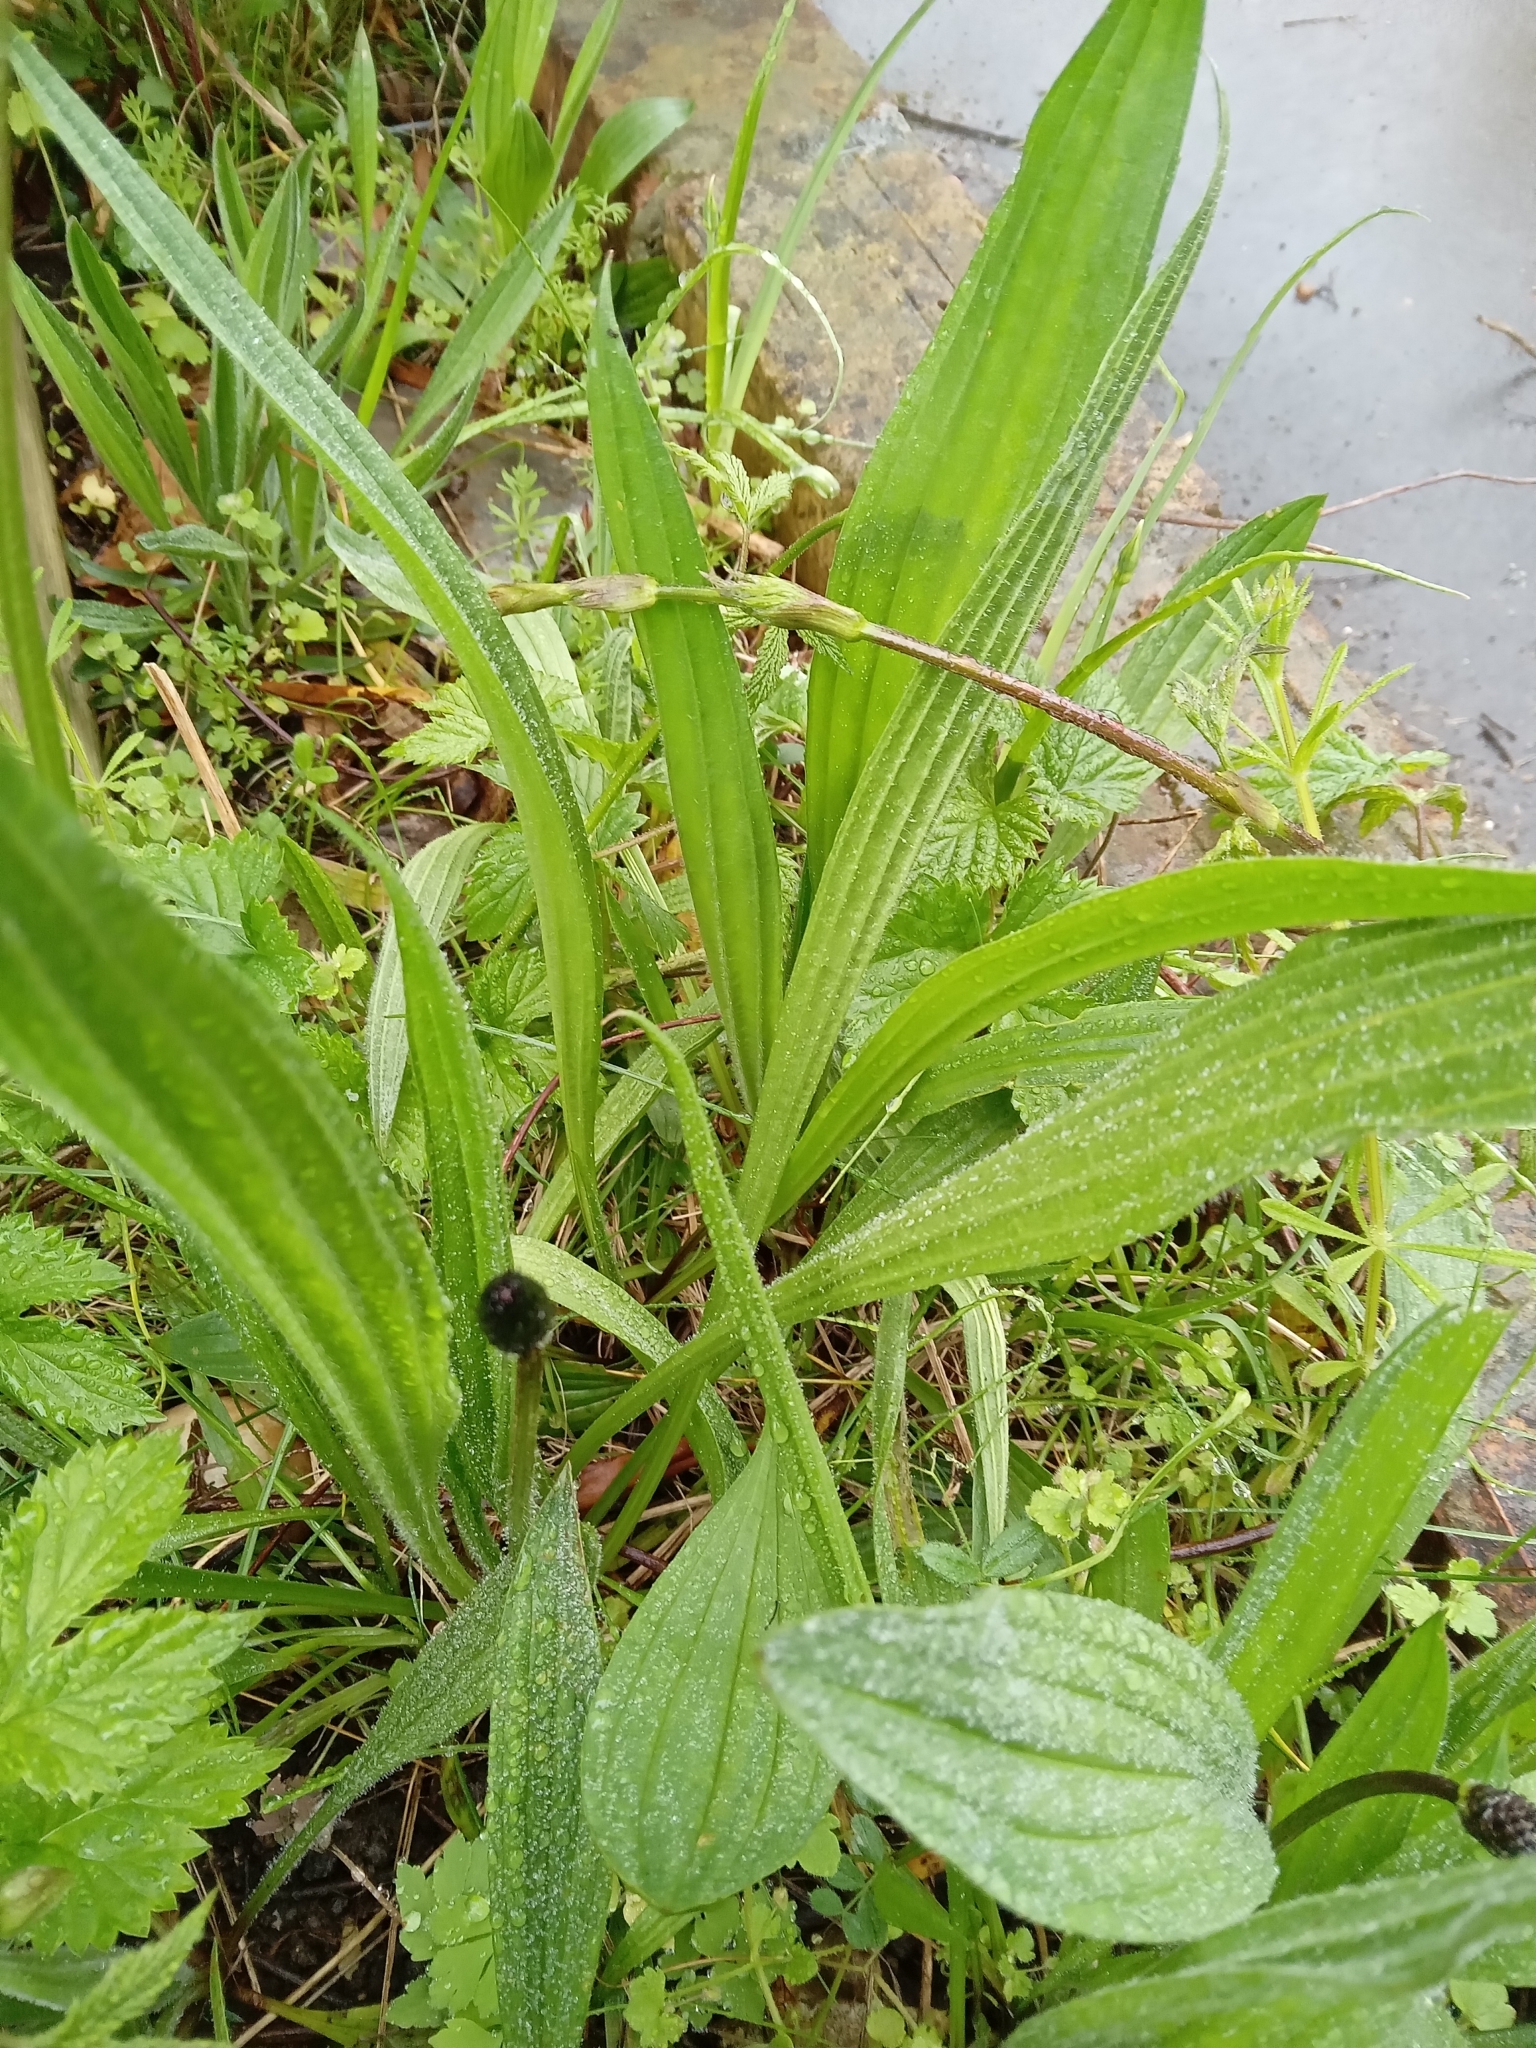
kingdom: Plantae
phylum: Tracheophyta
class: Magnoliopsida
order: Lamiales
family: Plantaginaceae
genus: Plantago
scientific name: Plantago lanceolata
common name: Ribwort plantain
